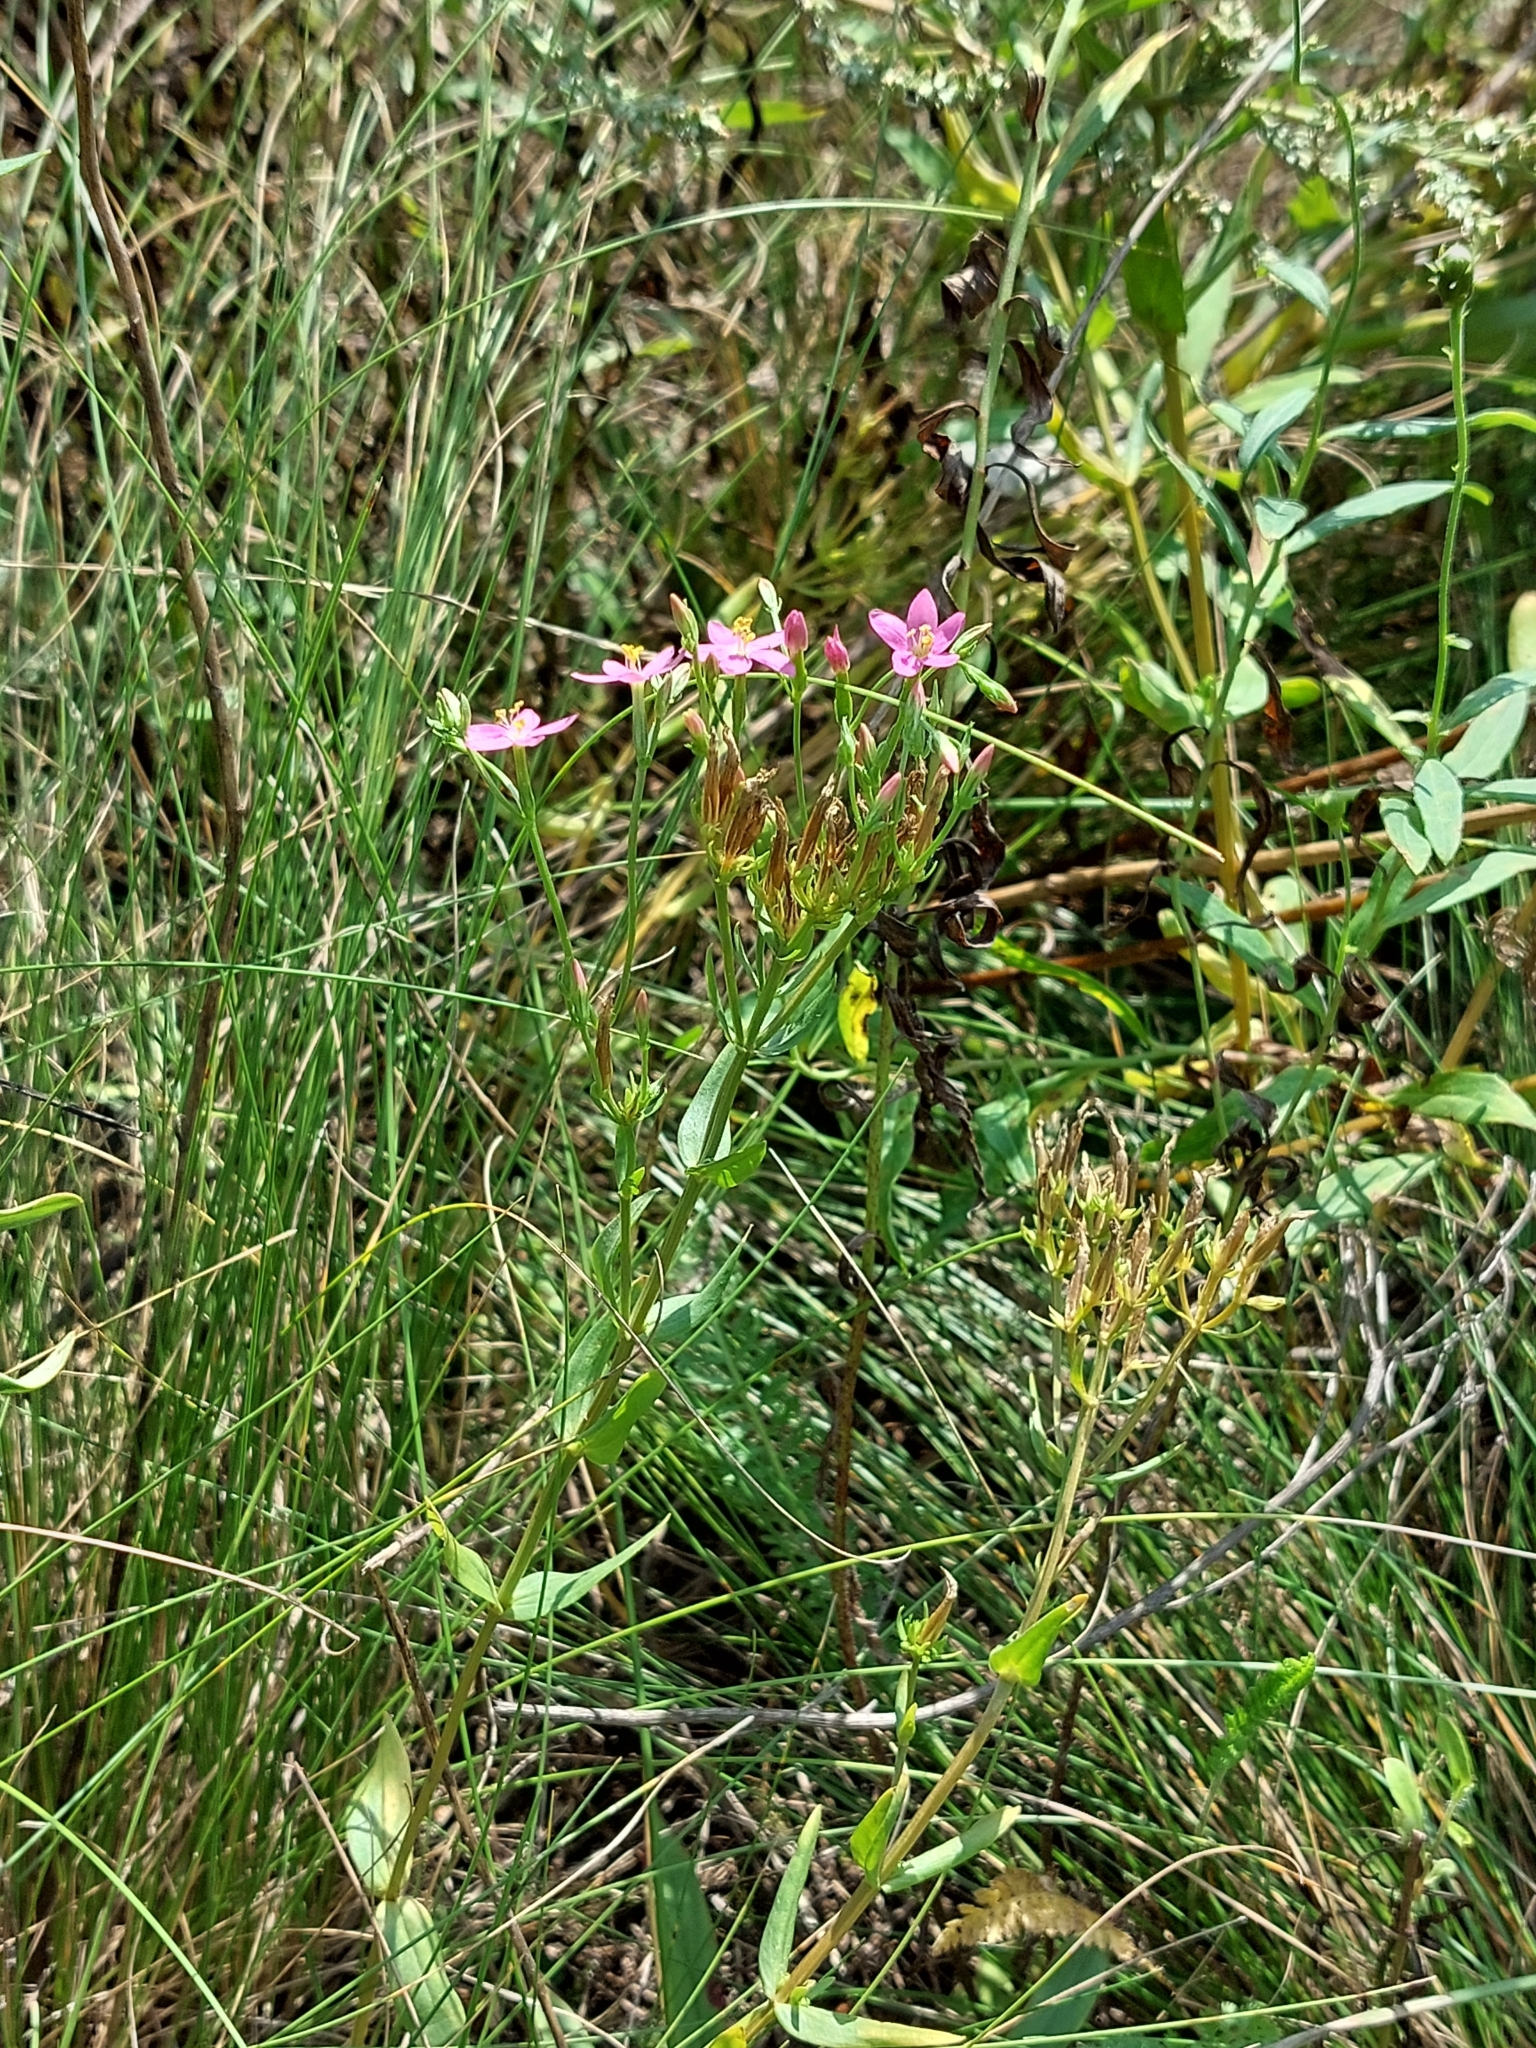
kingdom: Plantae
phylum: Tracheophyta
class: Magnoliopsida
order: Gentianales
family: Gentianaceae
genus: Centaurium
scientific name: Centaurium erythraea
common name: Common centaury
